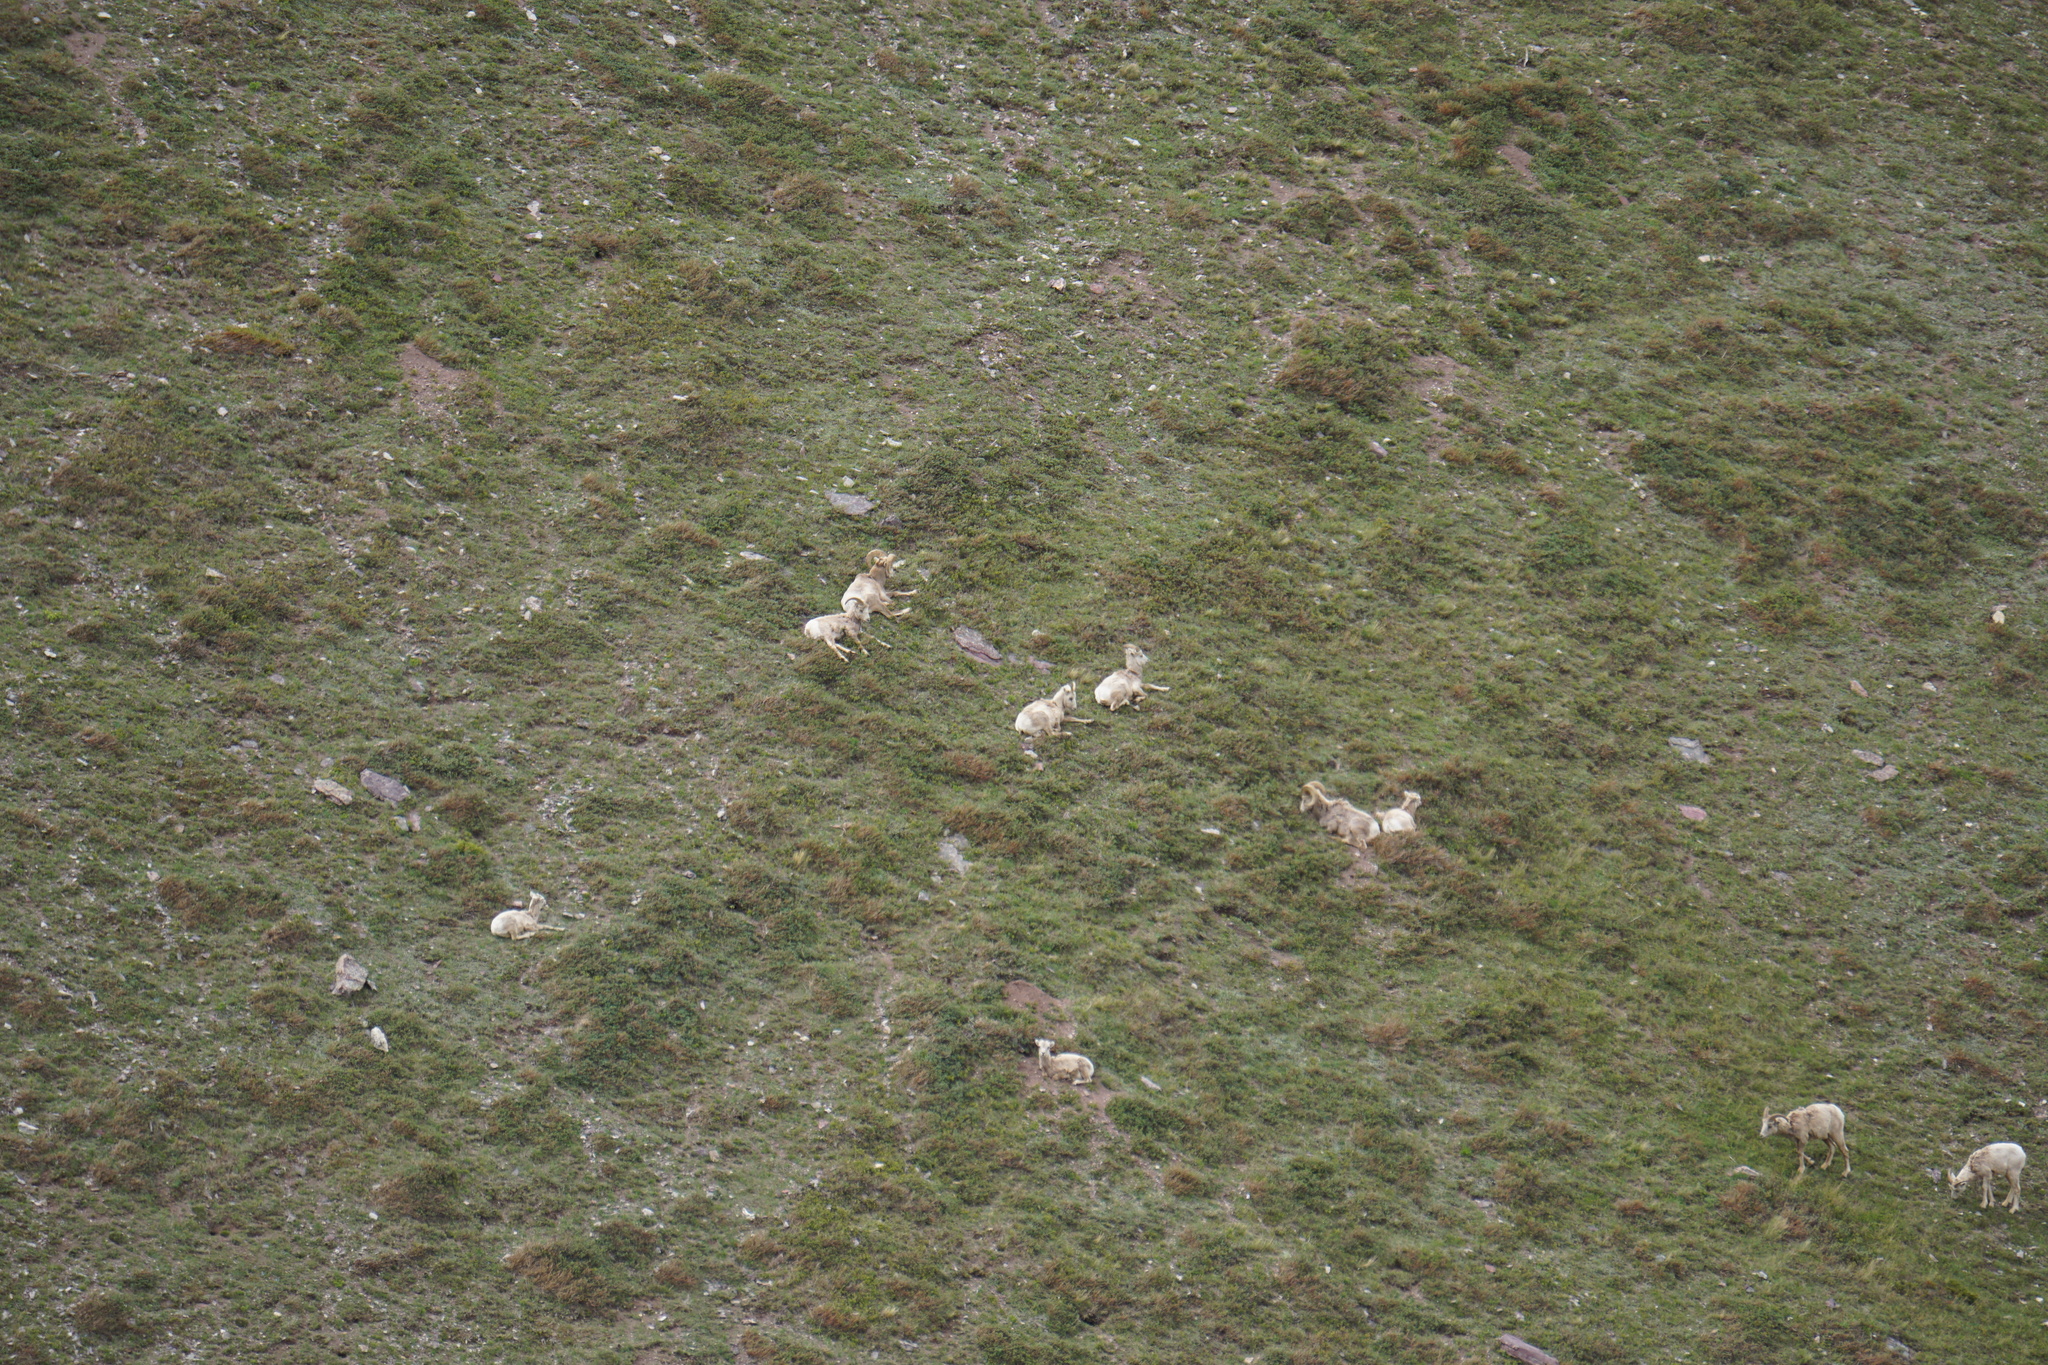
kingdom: Animalia
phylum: Chordata
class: Mammalia
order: Artiodactyla
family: Bovidae
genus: Ovis
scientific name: Ovis canadensis
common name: Bighorn sheep
